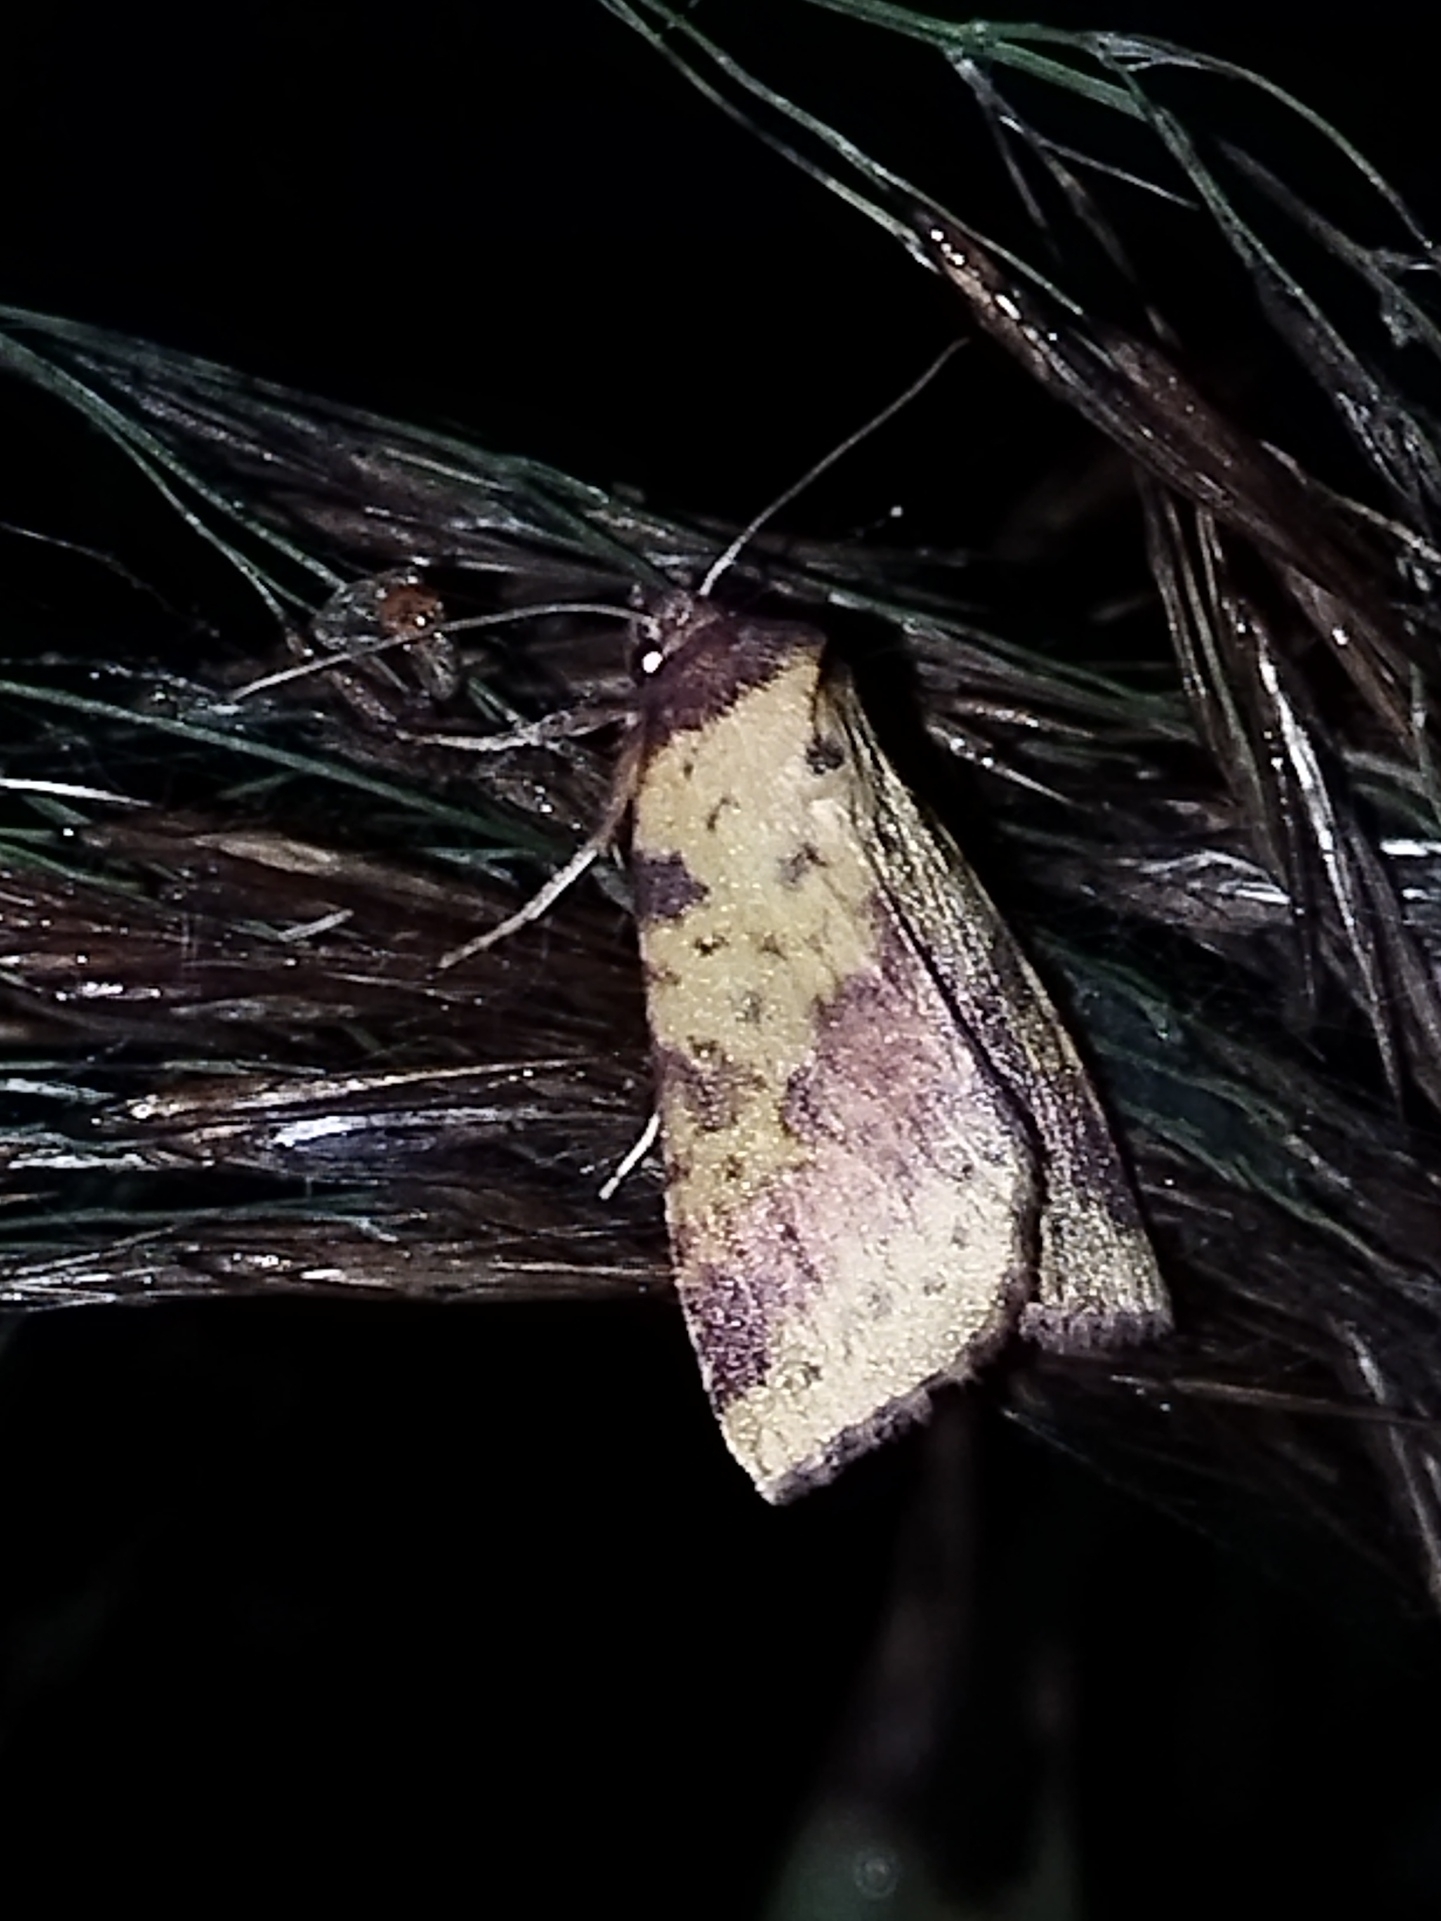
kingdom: Animalia
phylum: Arthropoda
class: Insecta
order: Lepidoptera
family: Noctuidae
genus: Xanthia
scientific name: Xanthia togata
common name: Pink-barred sallow
